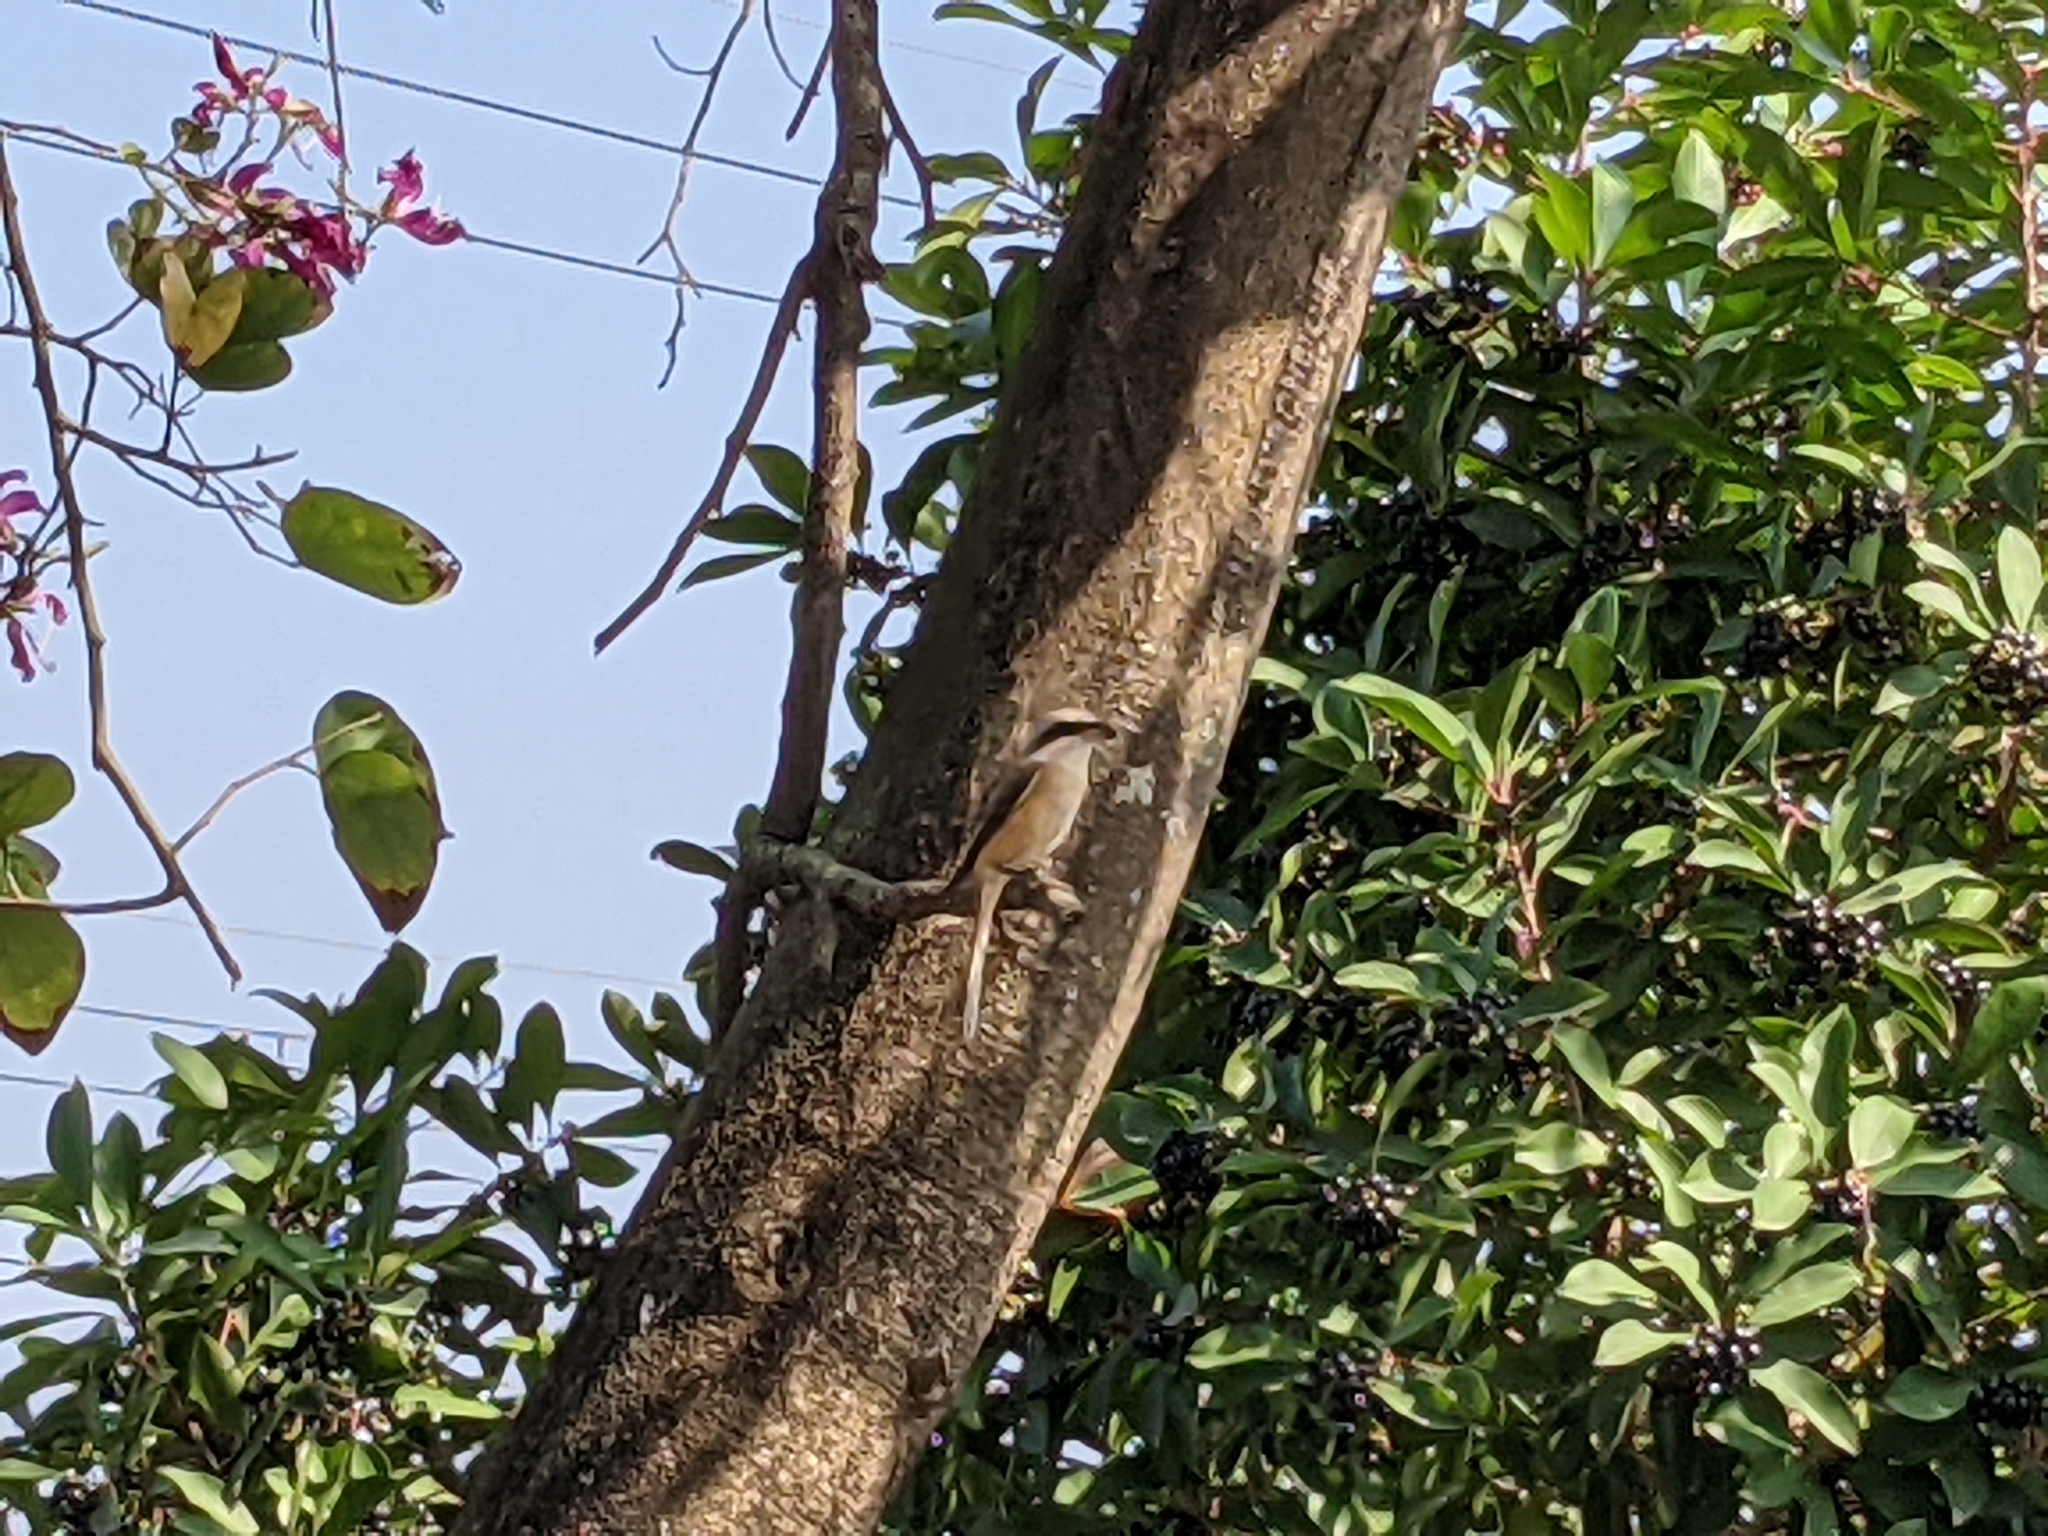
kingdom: Animalia
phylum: Chordata
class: Aves
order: Passeriformes
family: Laniidae
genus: Lanius
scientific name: Lanius cristatus
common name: Brown shrike
